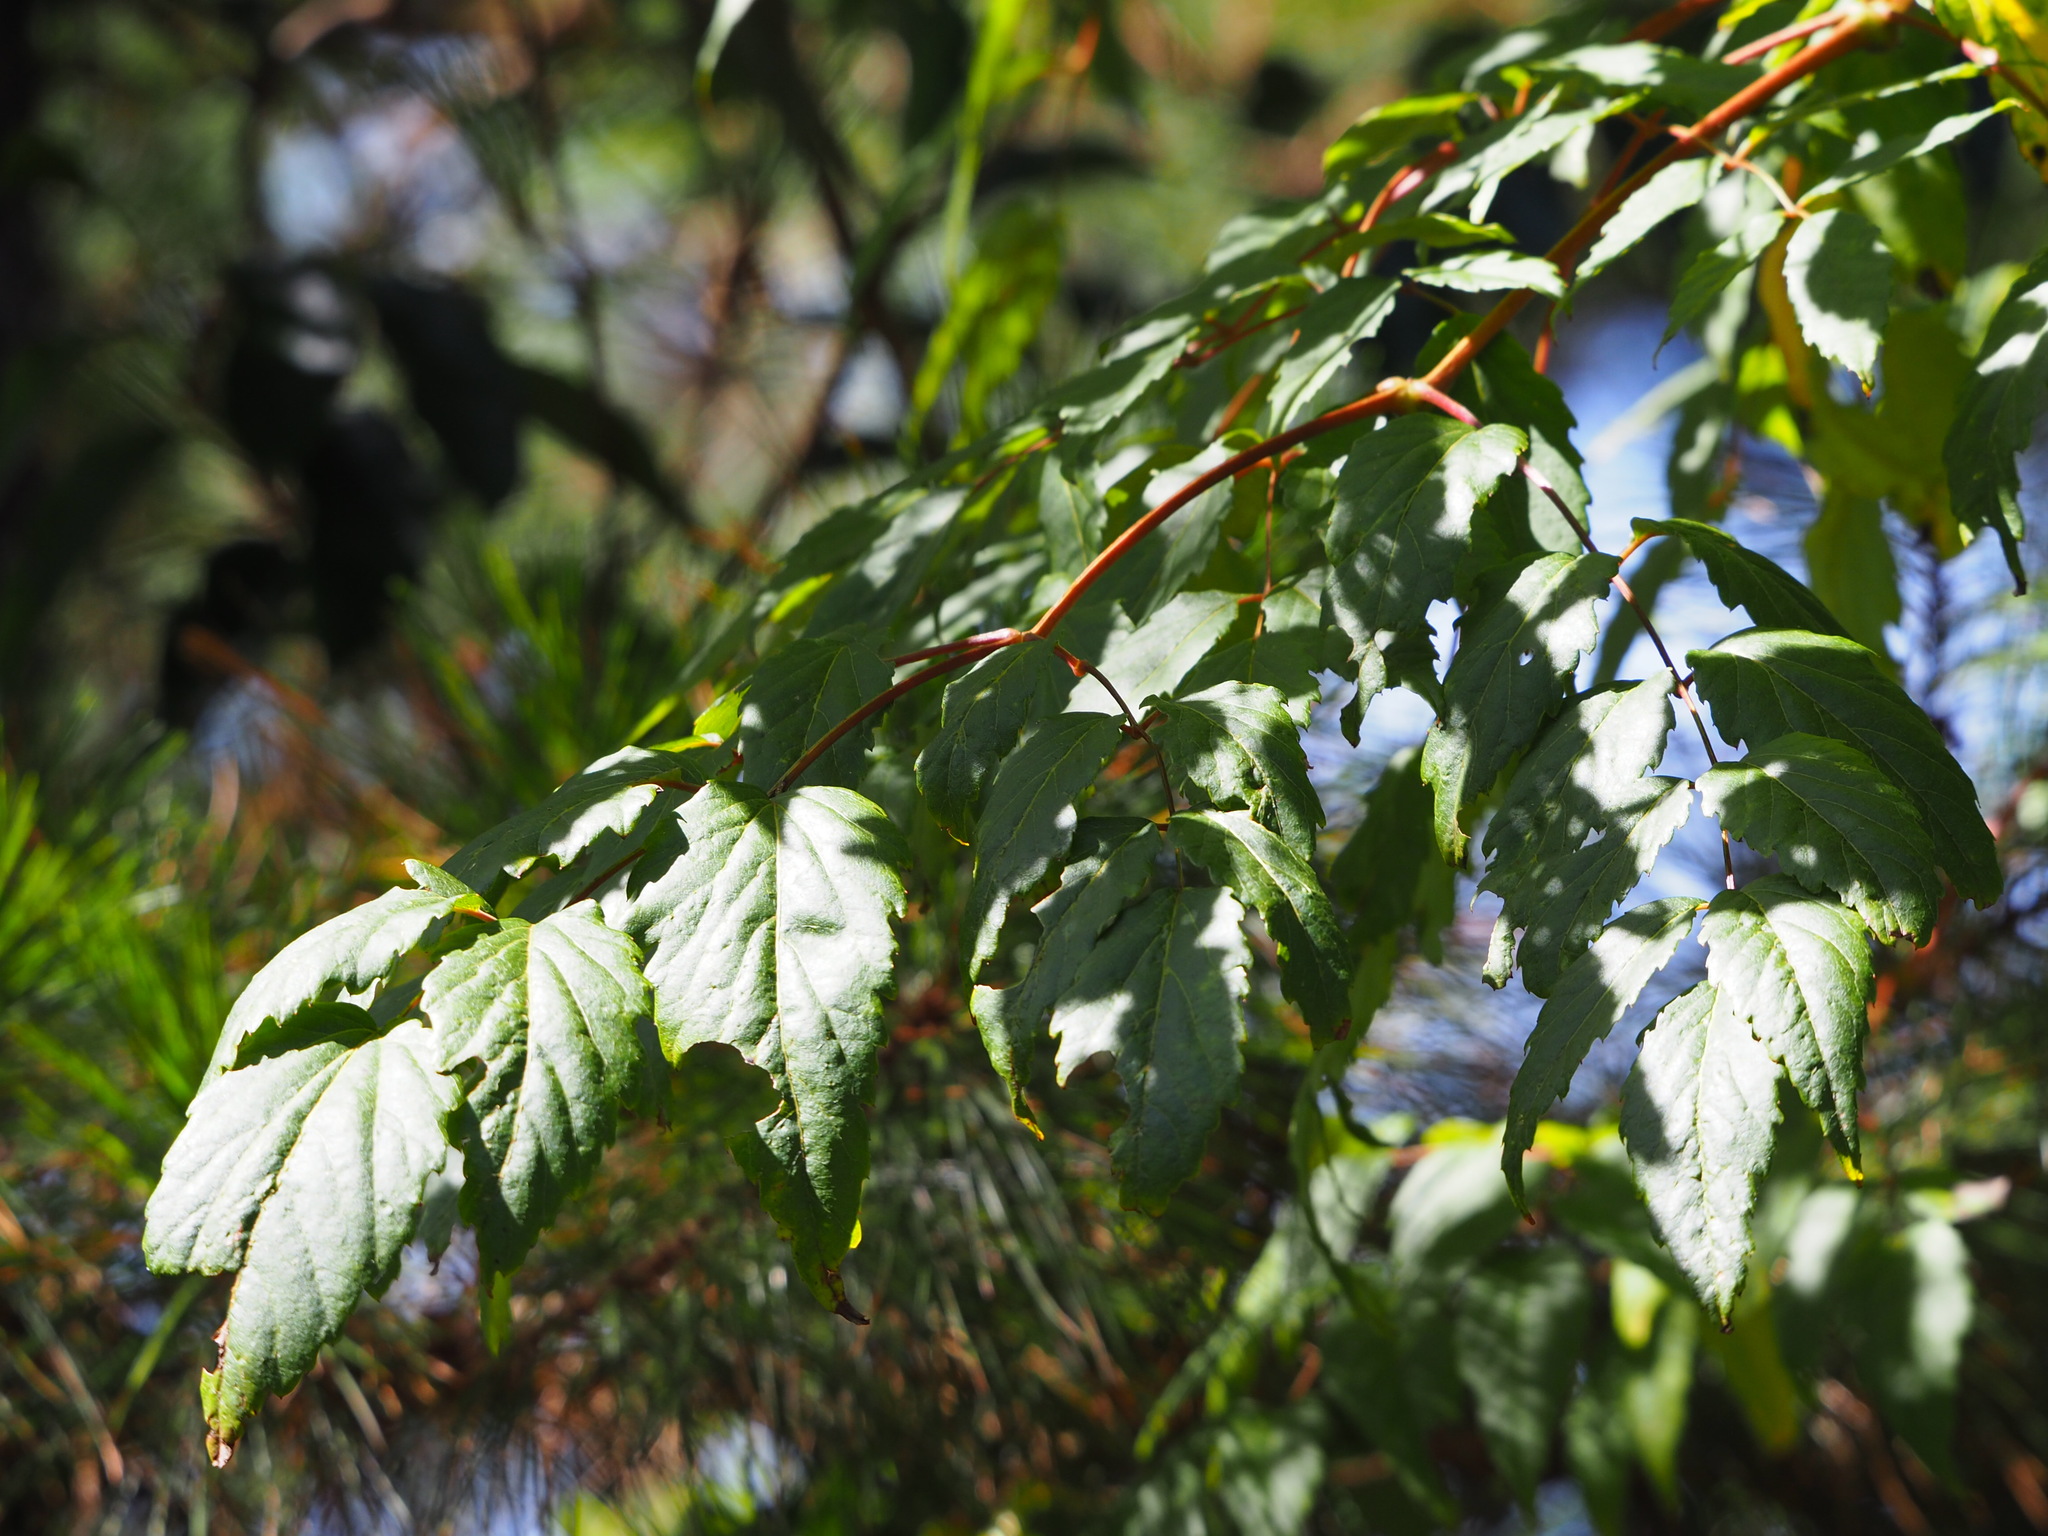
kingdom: Plantae
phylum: Tracheophyta
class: Magnoliopsida
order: Apiales
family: Araliaceae
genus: Aralia
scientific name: Aralia bipinnata
